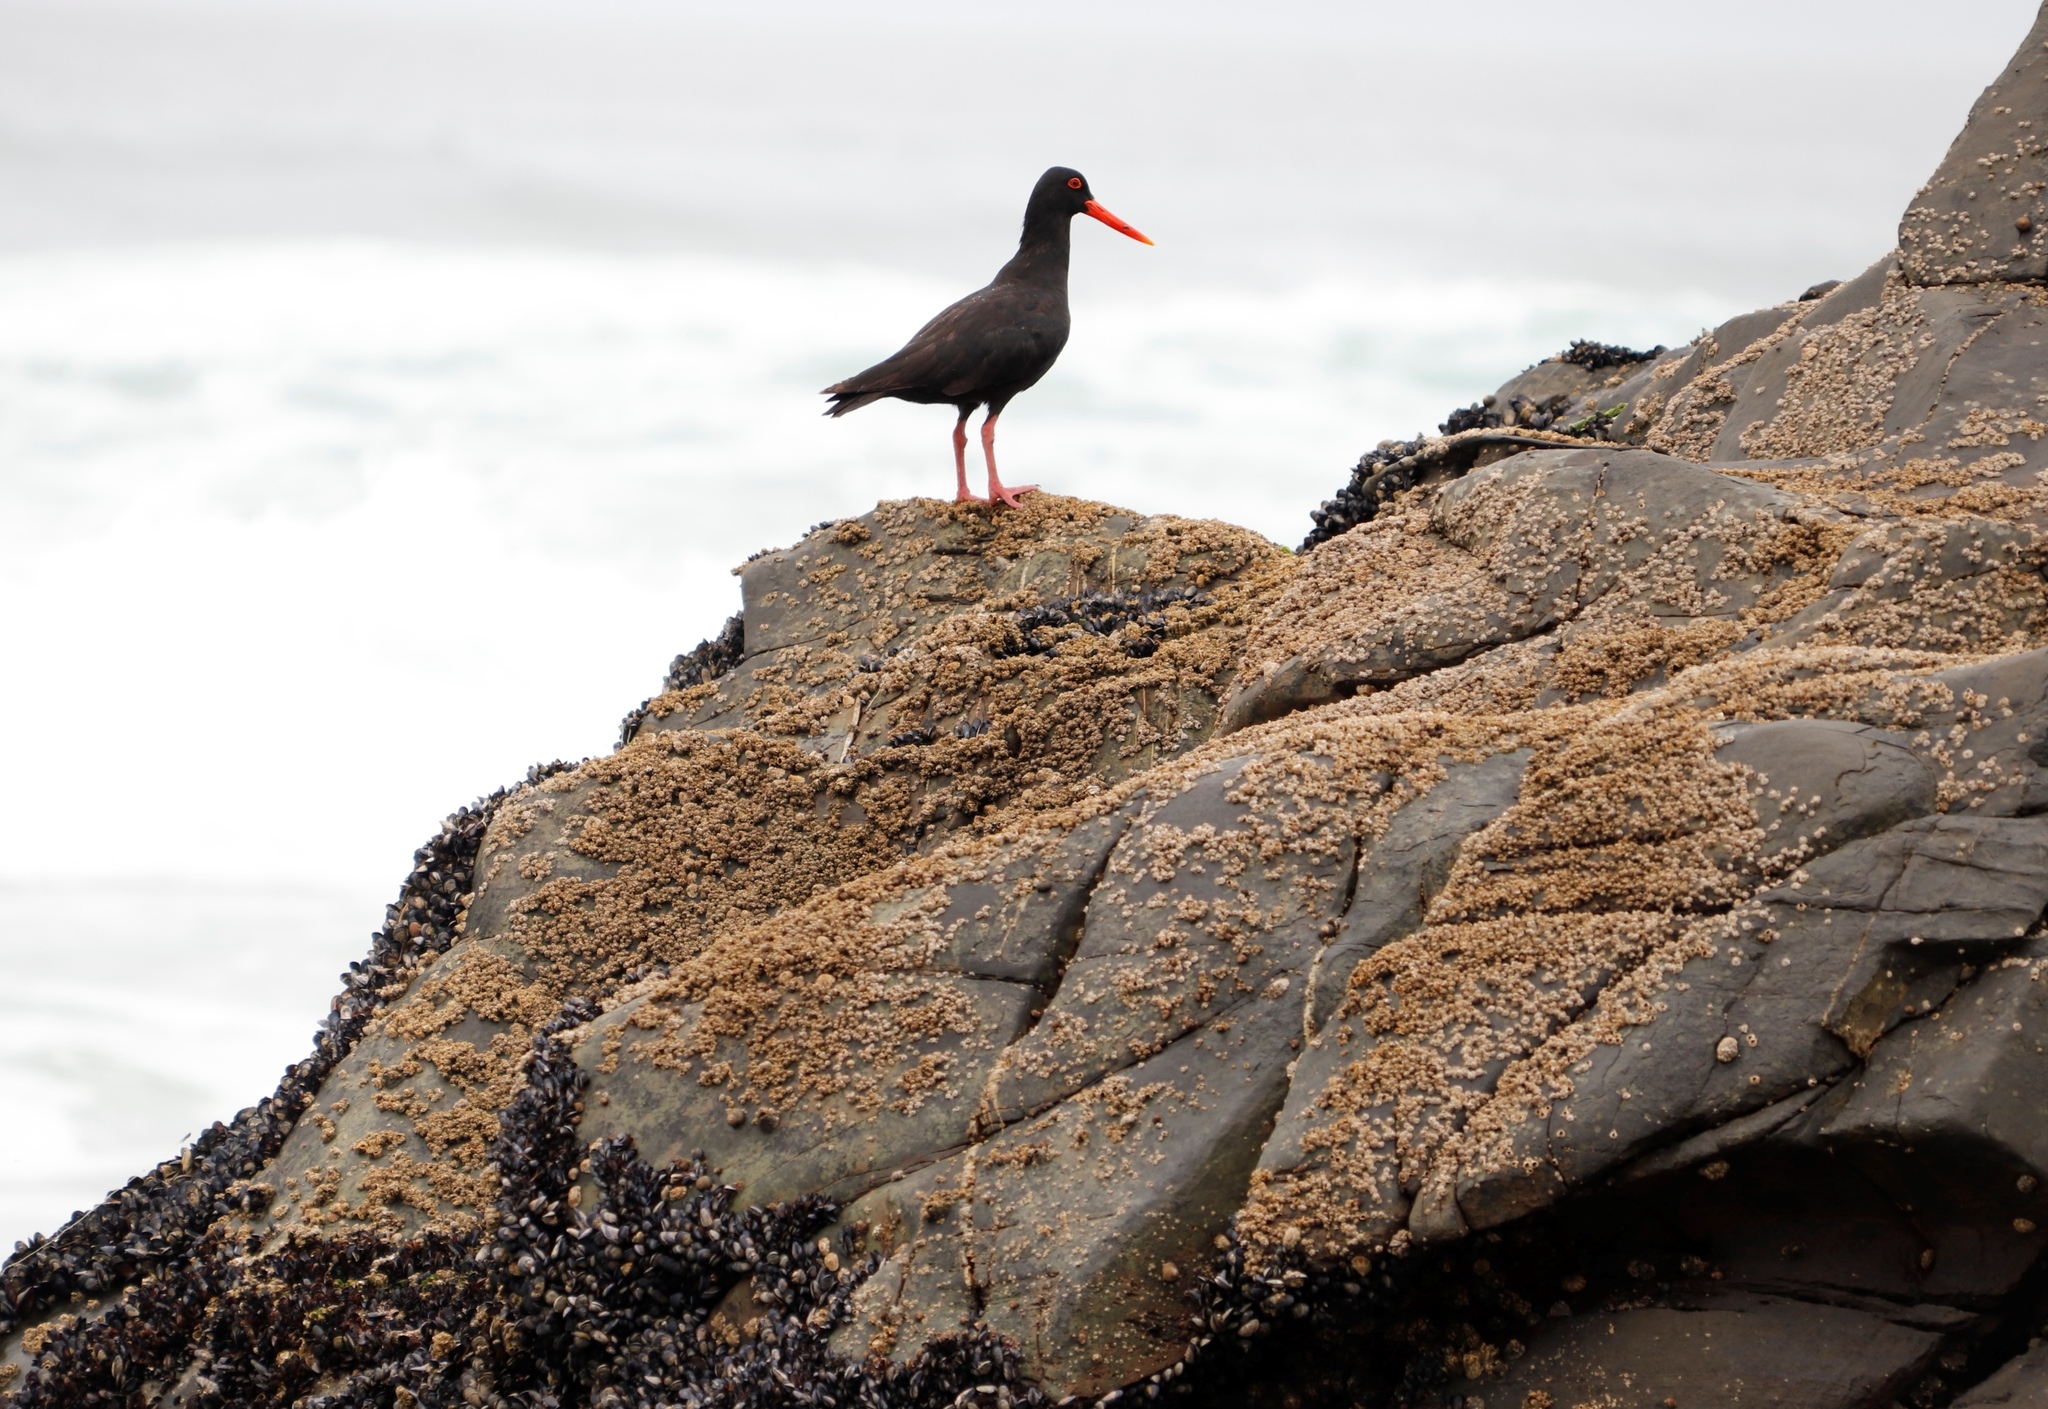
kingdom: Animalia
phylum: Chordata
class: Aves
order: Charadriiformes
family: Haematopodidae
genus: Haematopus
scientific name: Haematopus moquini
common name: African oystercatcher
